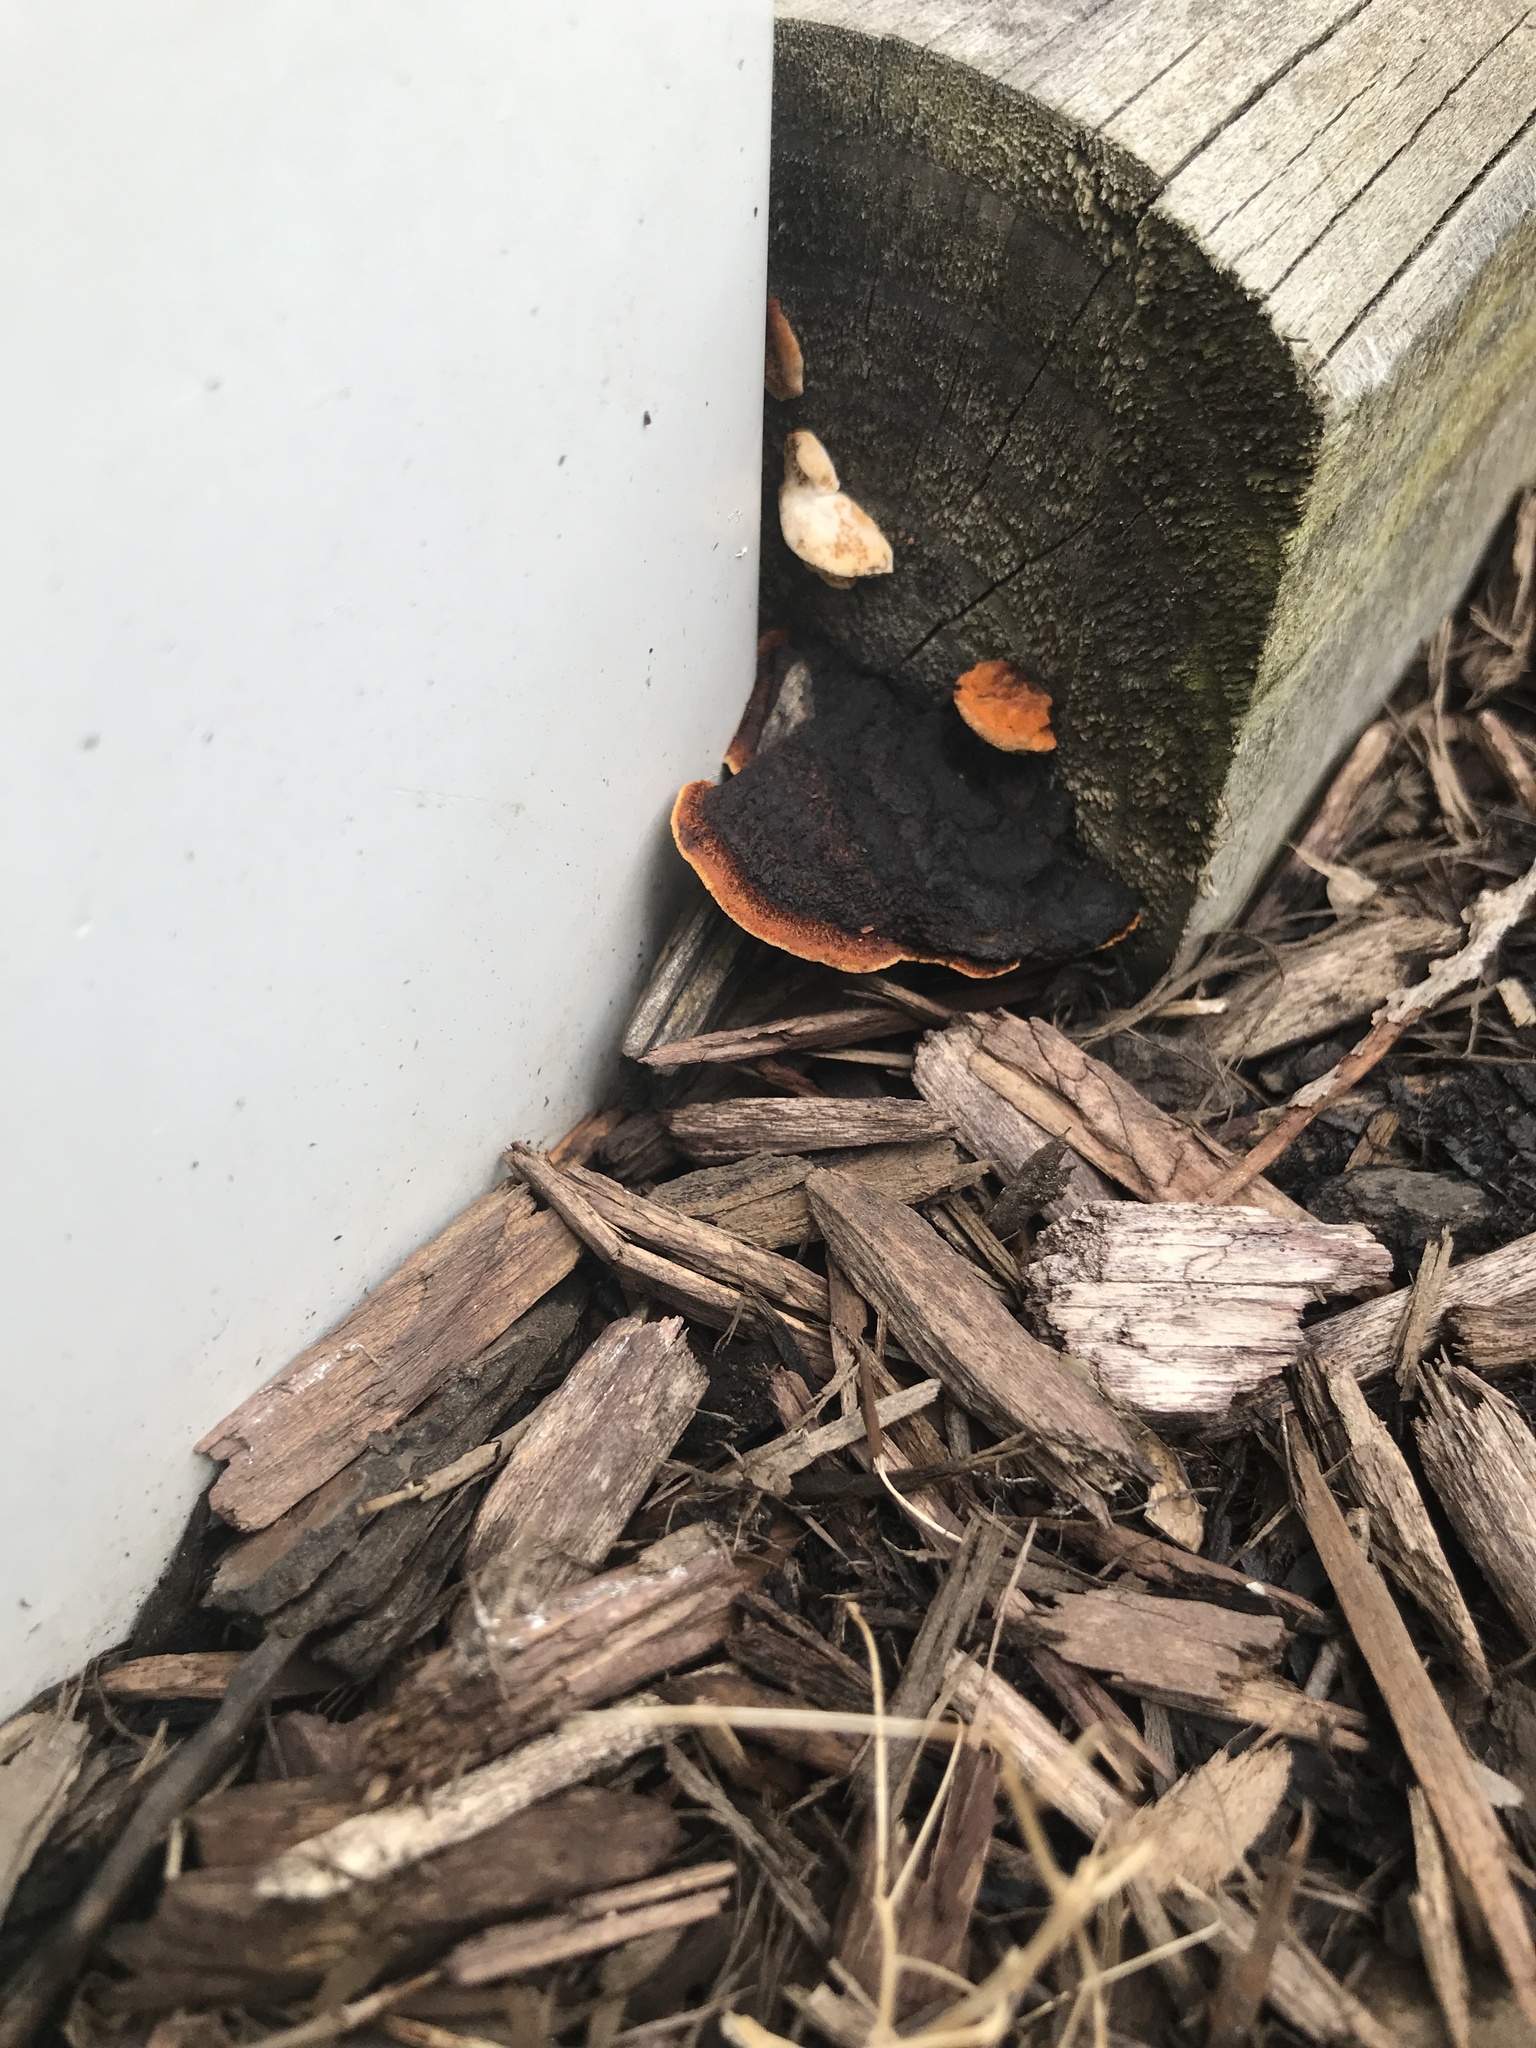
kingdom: Fungi
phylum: Basidiomycota
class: Agaricomycetes
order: Gloeophyllales
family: Gloeophyllaceae
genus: Gloeophyllum
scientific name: Gloeophyllum sepiarium
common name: Conifer mazegill
